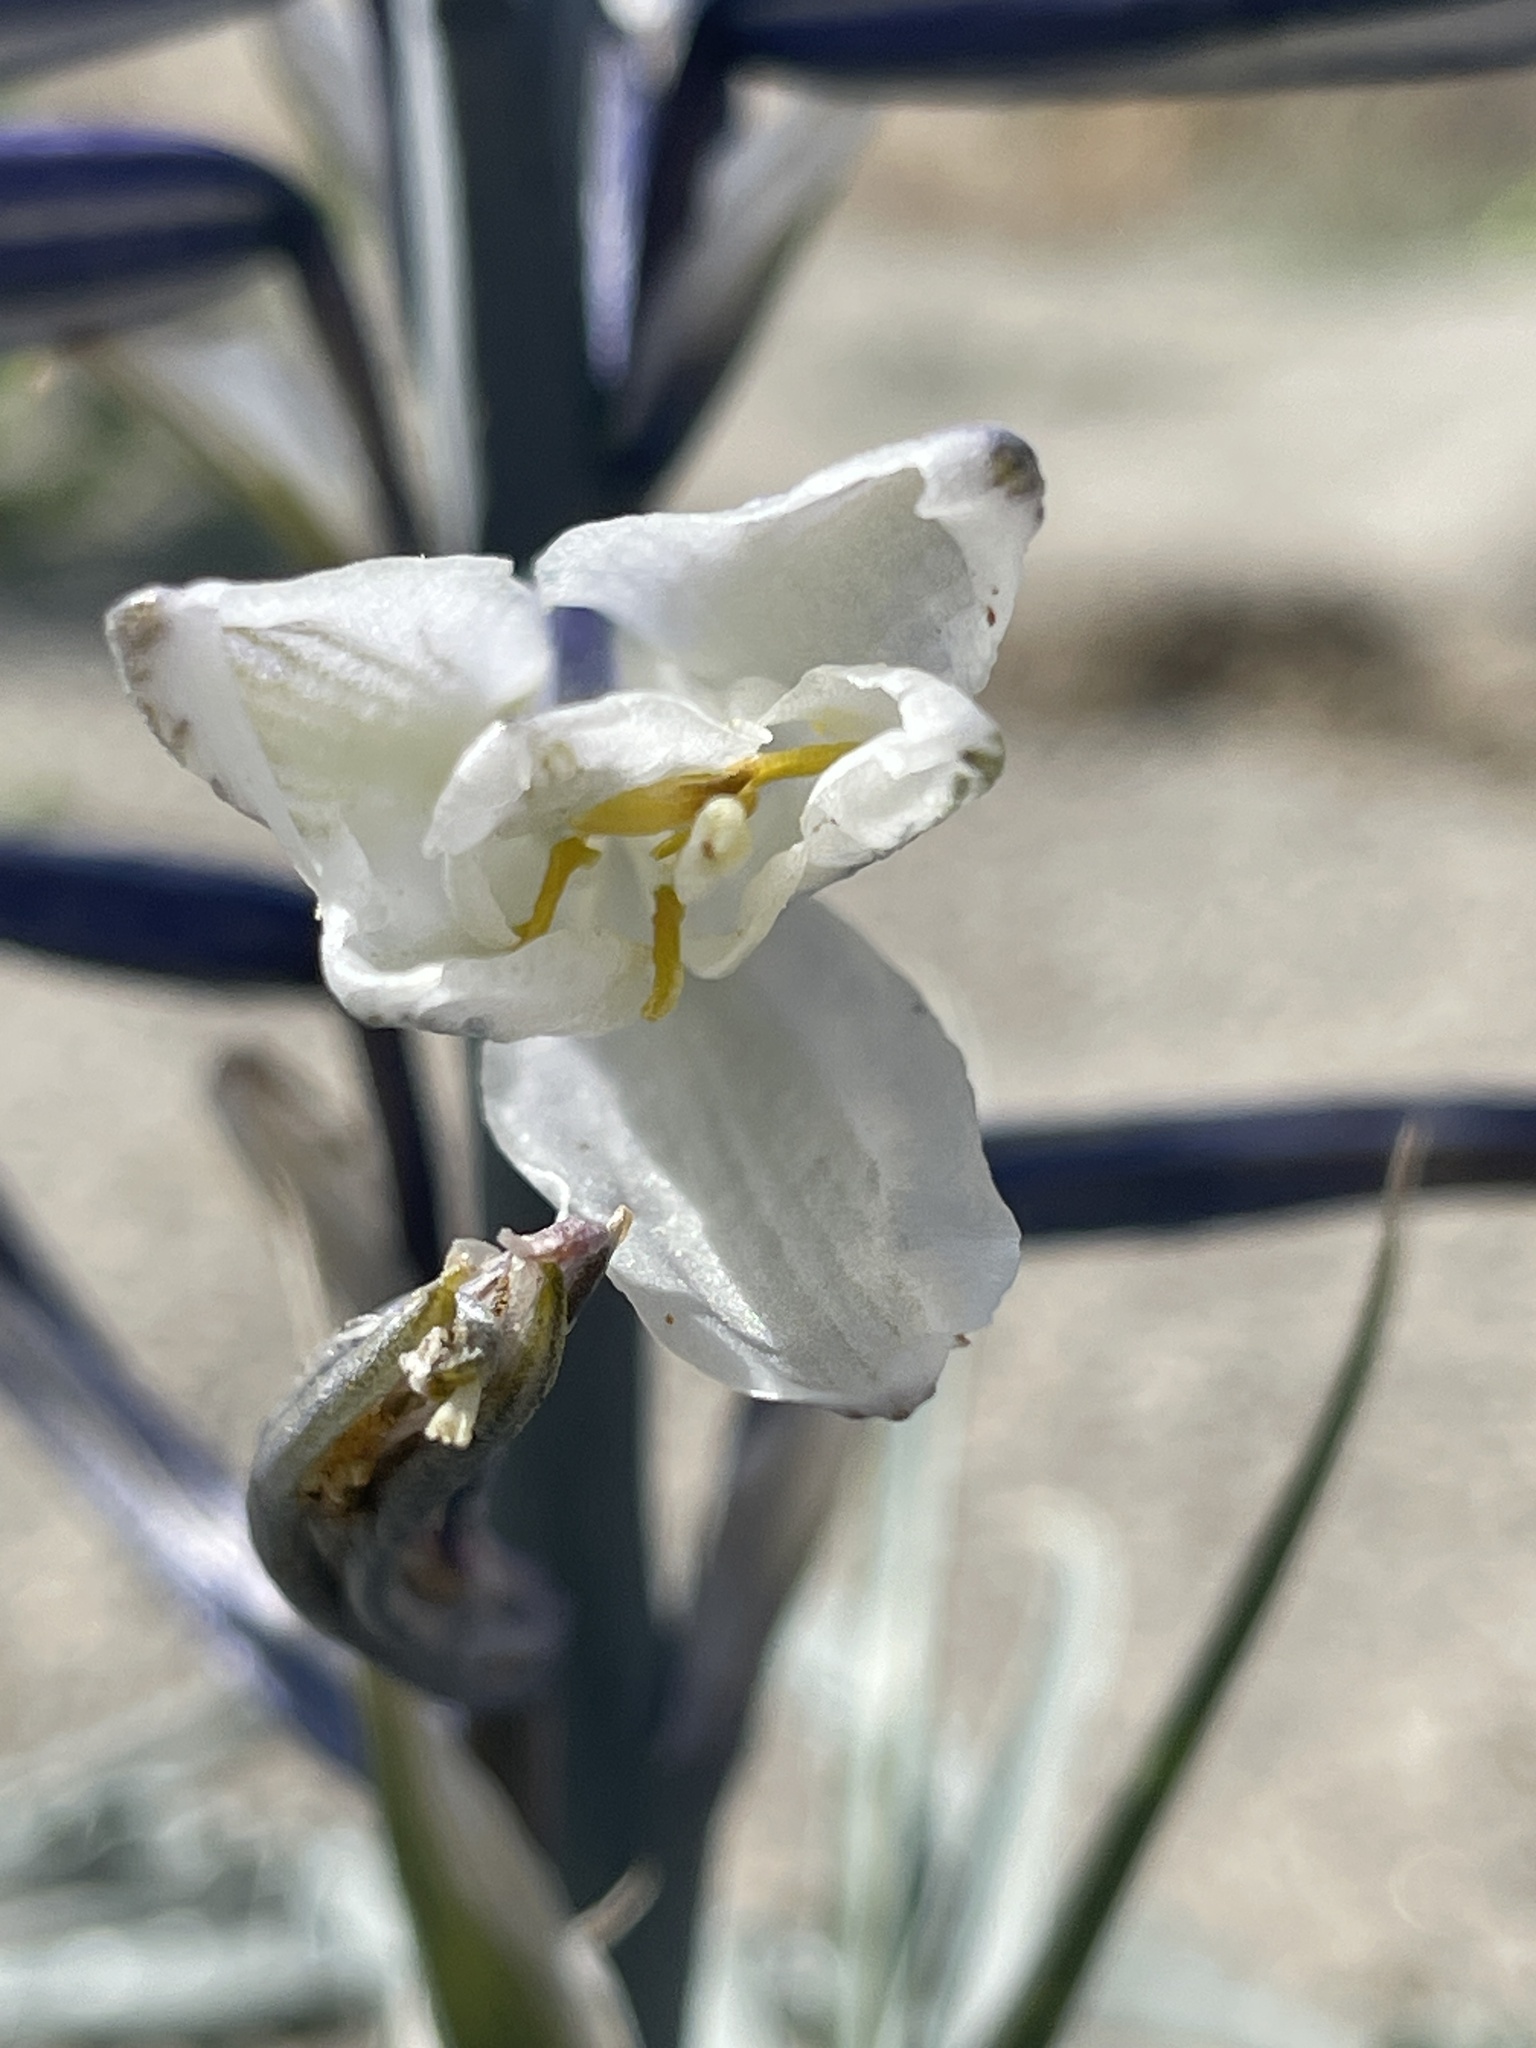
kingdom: Plantae
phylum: Tracheophyta
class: Liliopsida
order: Asparagales
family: Asparagaceae
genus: Hesperocallis
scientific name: Hesperocallis undulata
